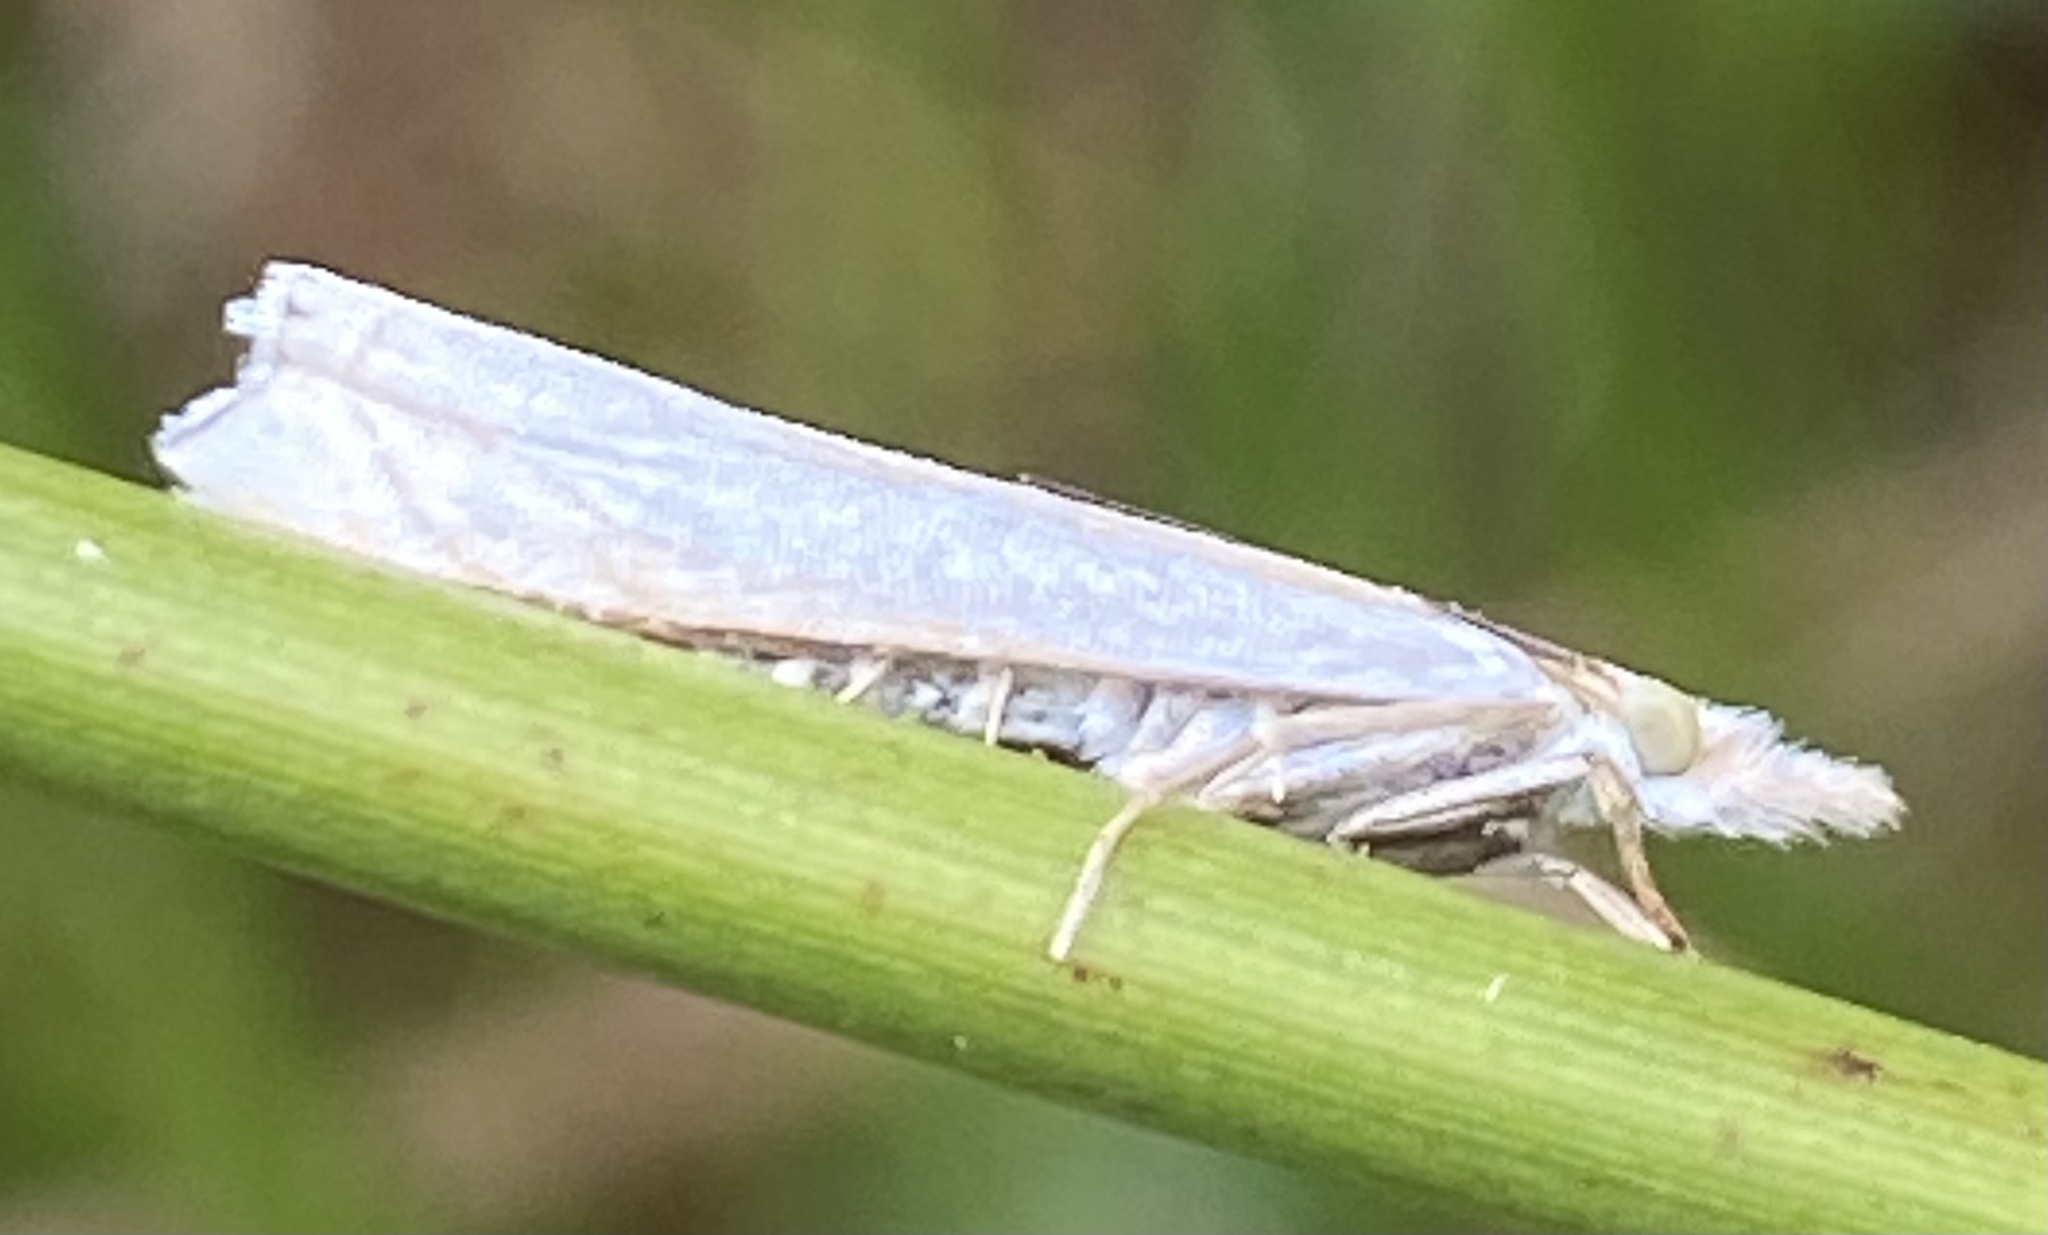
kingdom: Animalia
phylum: Arthropoda
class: Insecta
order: Lepidoptera
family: Crambidae
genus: Crambus
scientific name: Crambus nemorella
